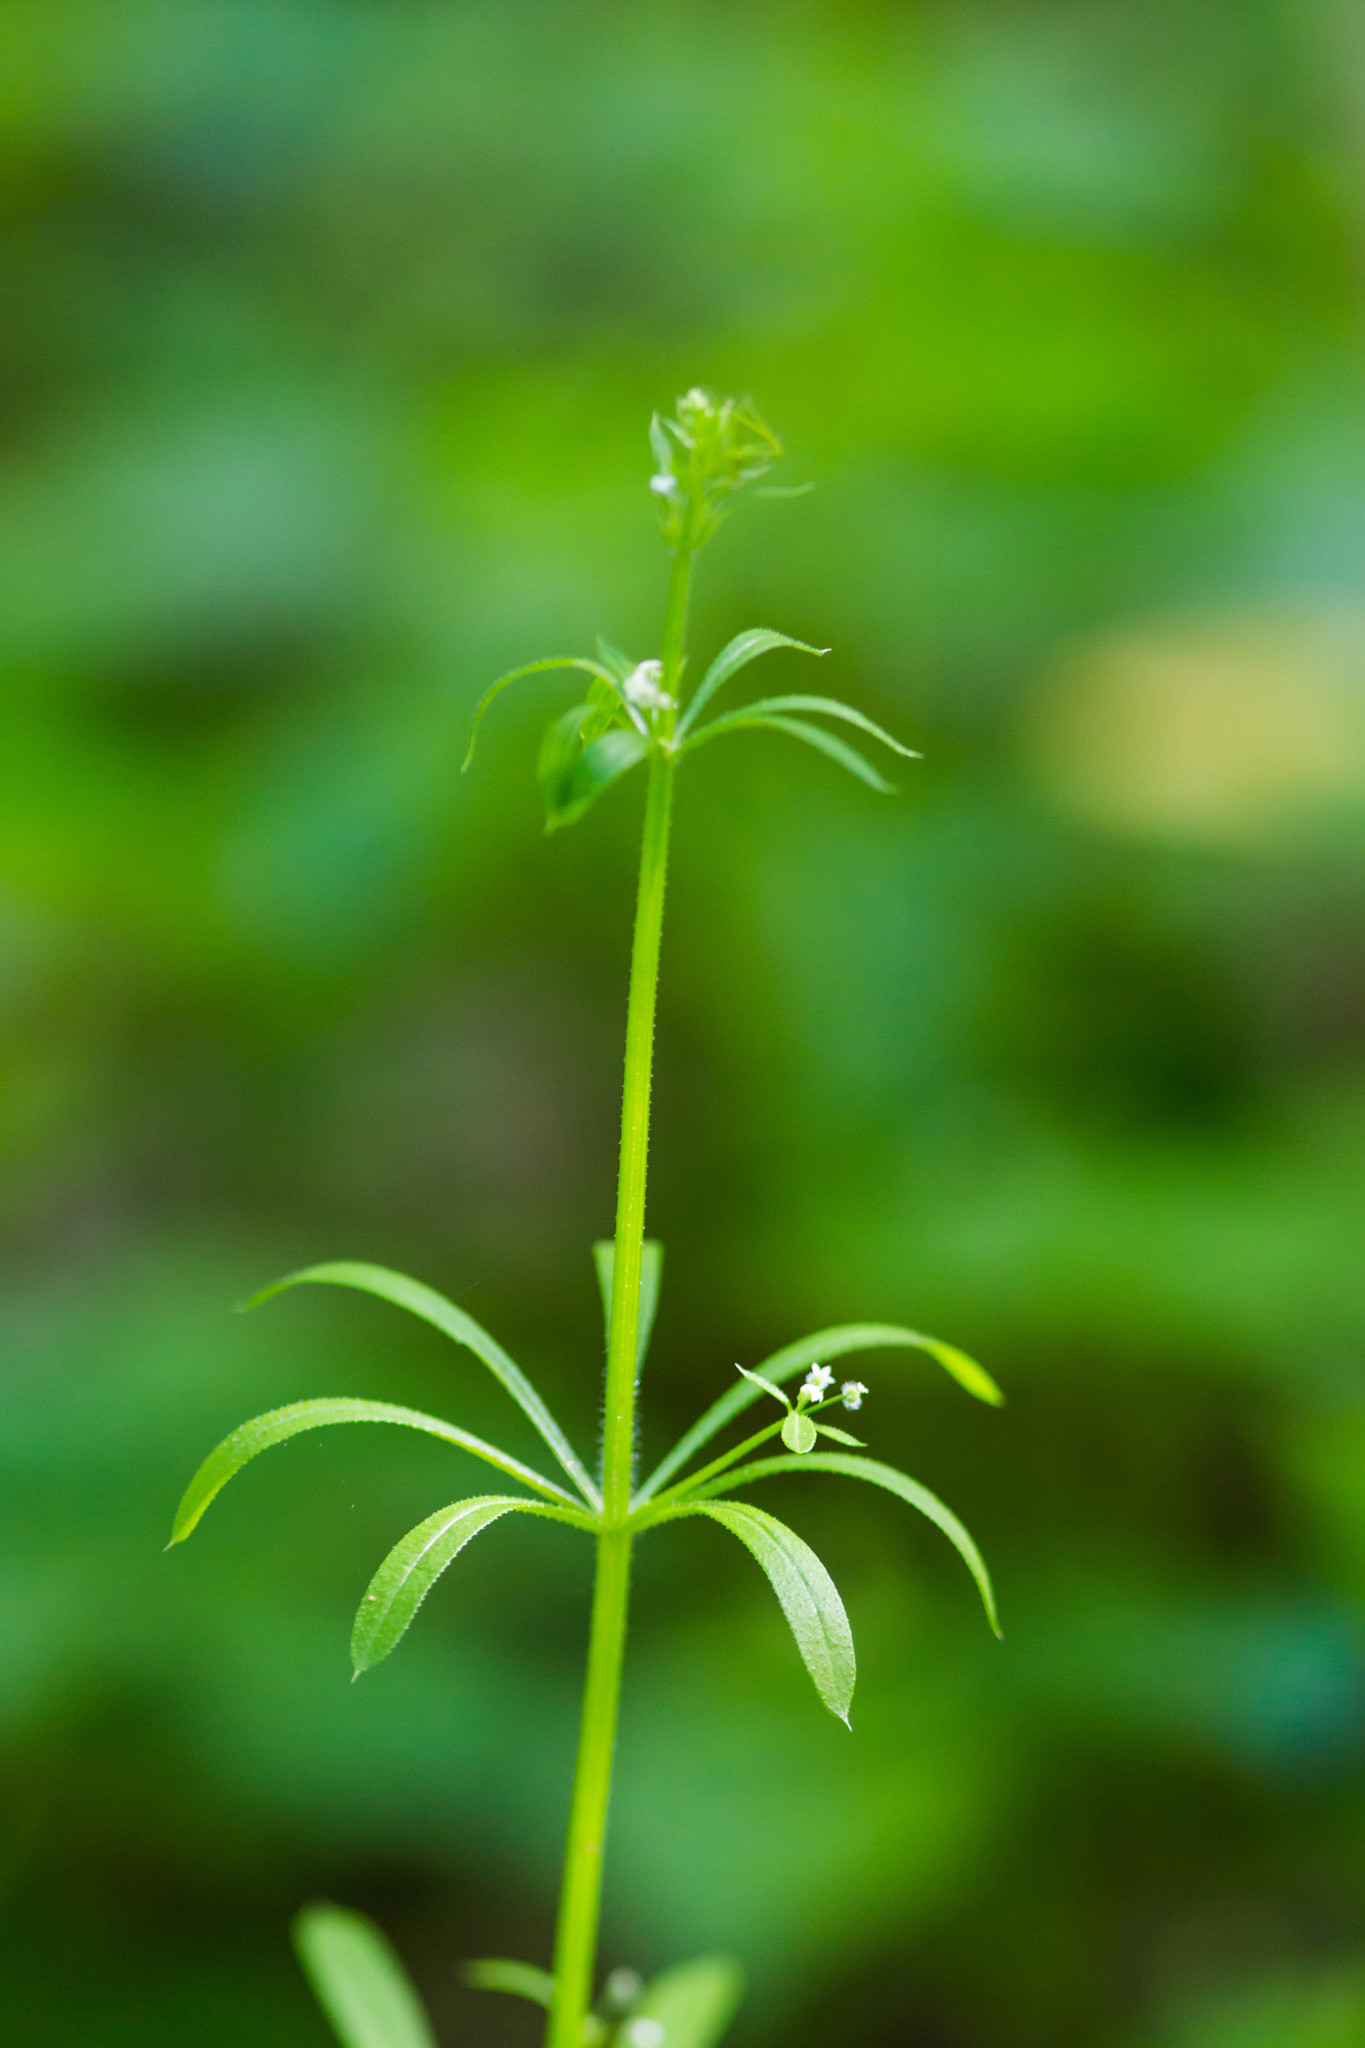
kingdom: Plantae
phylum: Tracheophyta
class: Magnoliopsida
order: Gentianales
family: Rubiaceae
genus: Galium
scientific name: Galium aparine
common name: Cleavers
